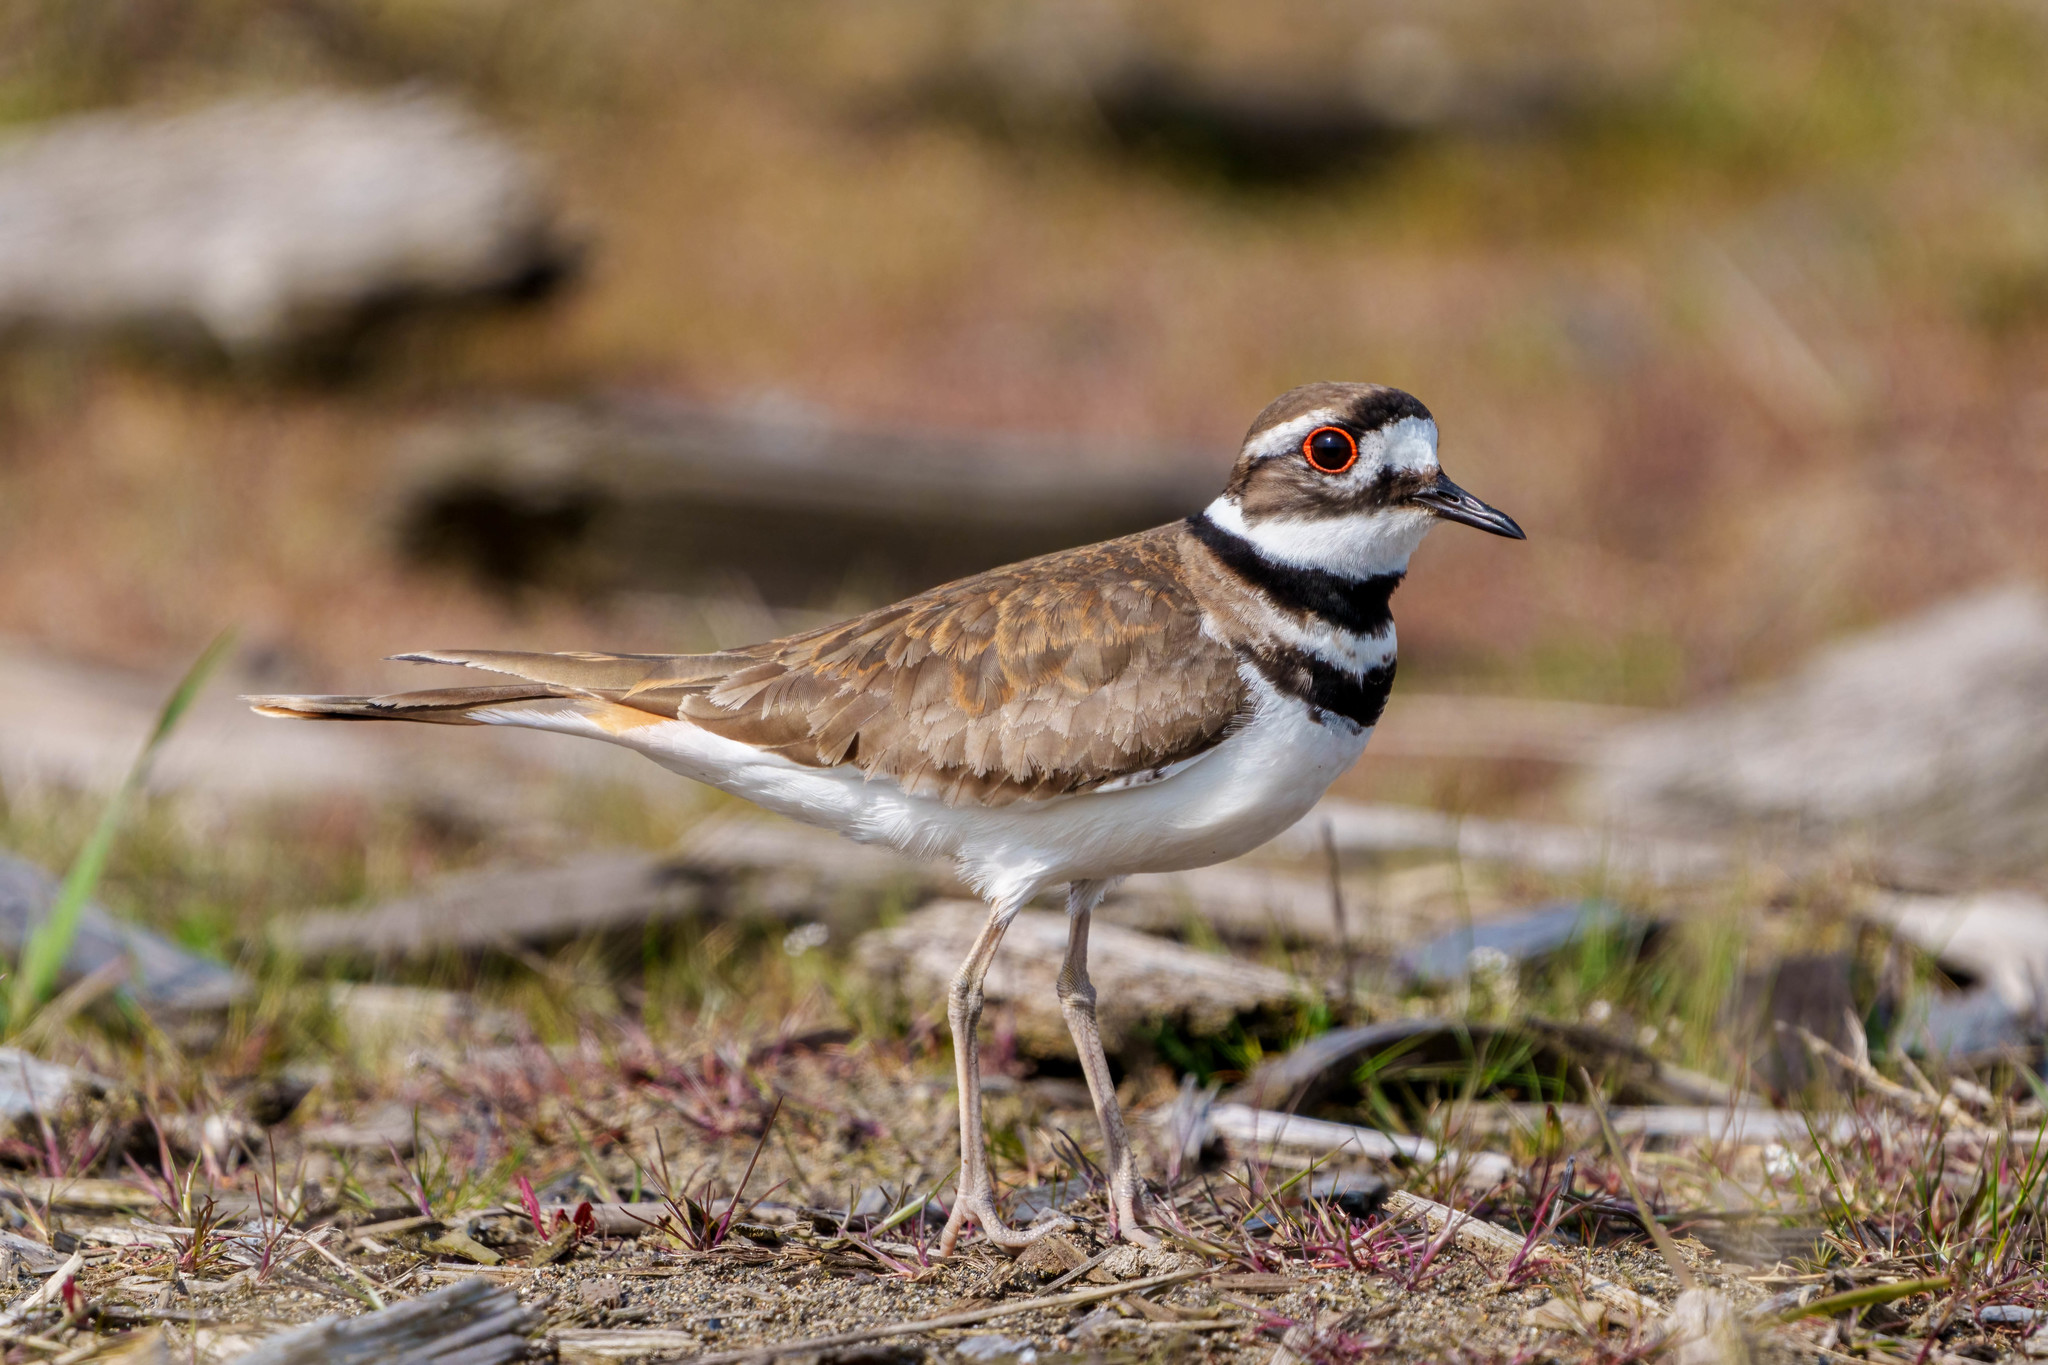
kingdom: Animalia
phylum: Chordata
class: Aves
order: Charadriiformes
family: Charadriidae
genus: Charadrius
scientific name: Charadrius vociferus
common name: Killdeer
